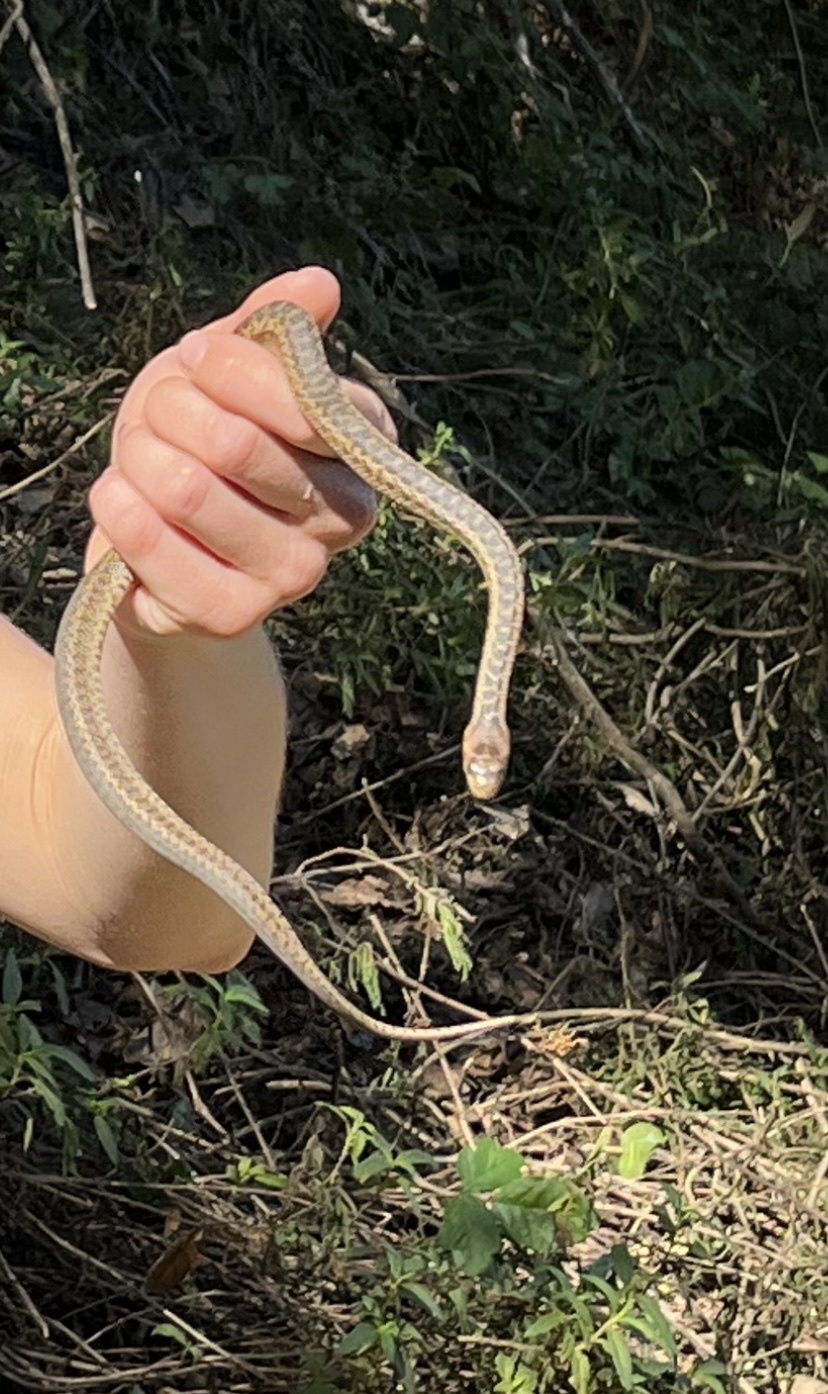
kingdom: Animalia
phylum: Chordata
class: Squamata
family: Colubridae
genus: Pituophis
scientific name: Pituophis catenifer
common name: Gopher snake
